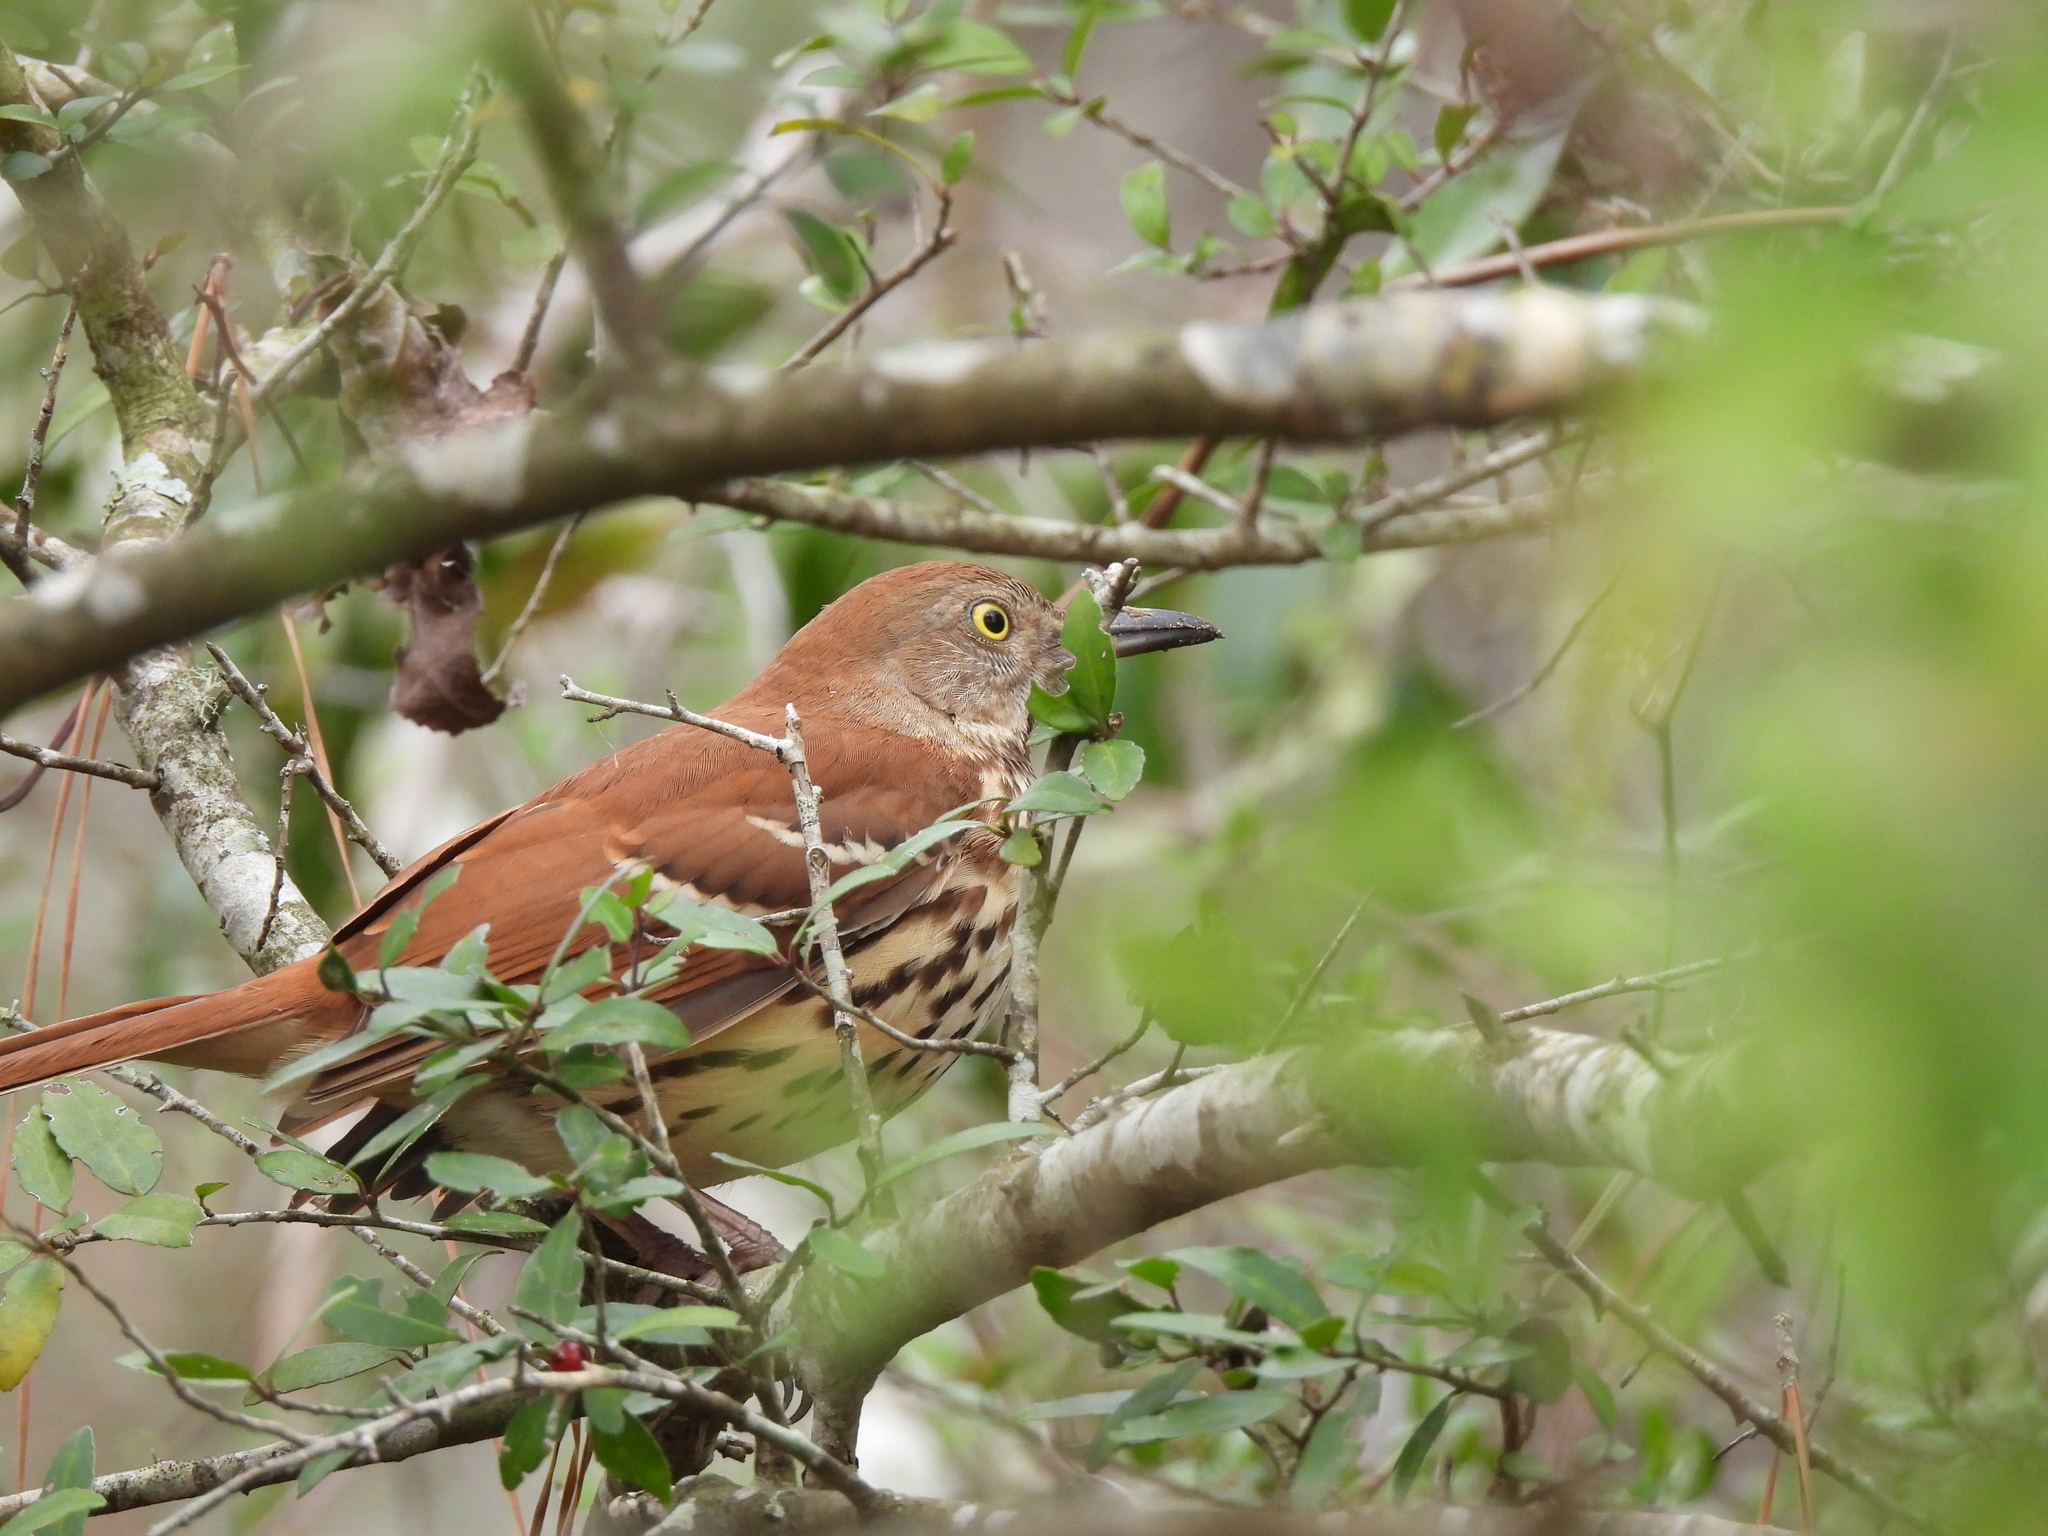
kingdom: Animalia
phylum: Chordata
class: Aves
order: Passeriformes
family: Mimidae
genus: Toxostoma
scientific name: Toxostoma rufum
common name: Brown thrasher
